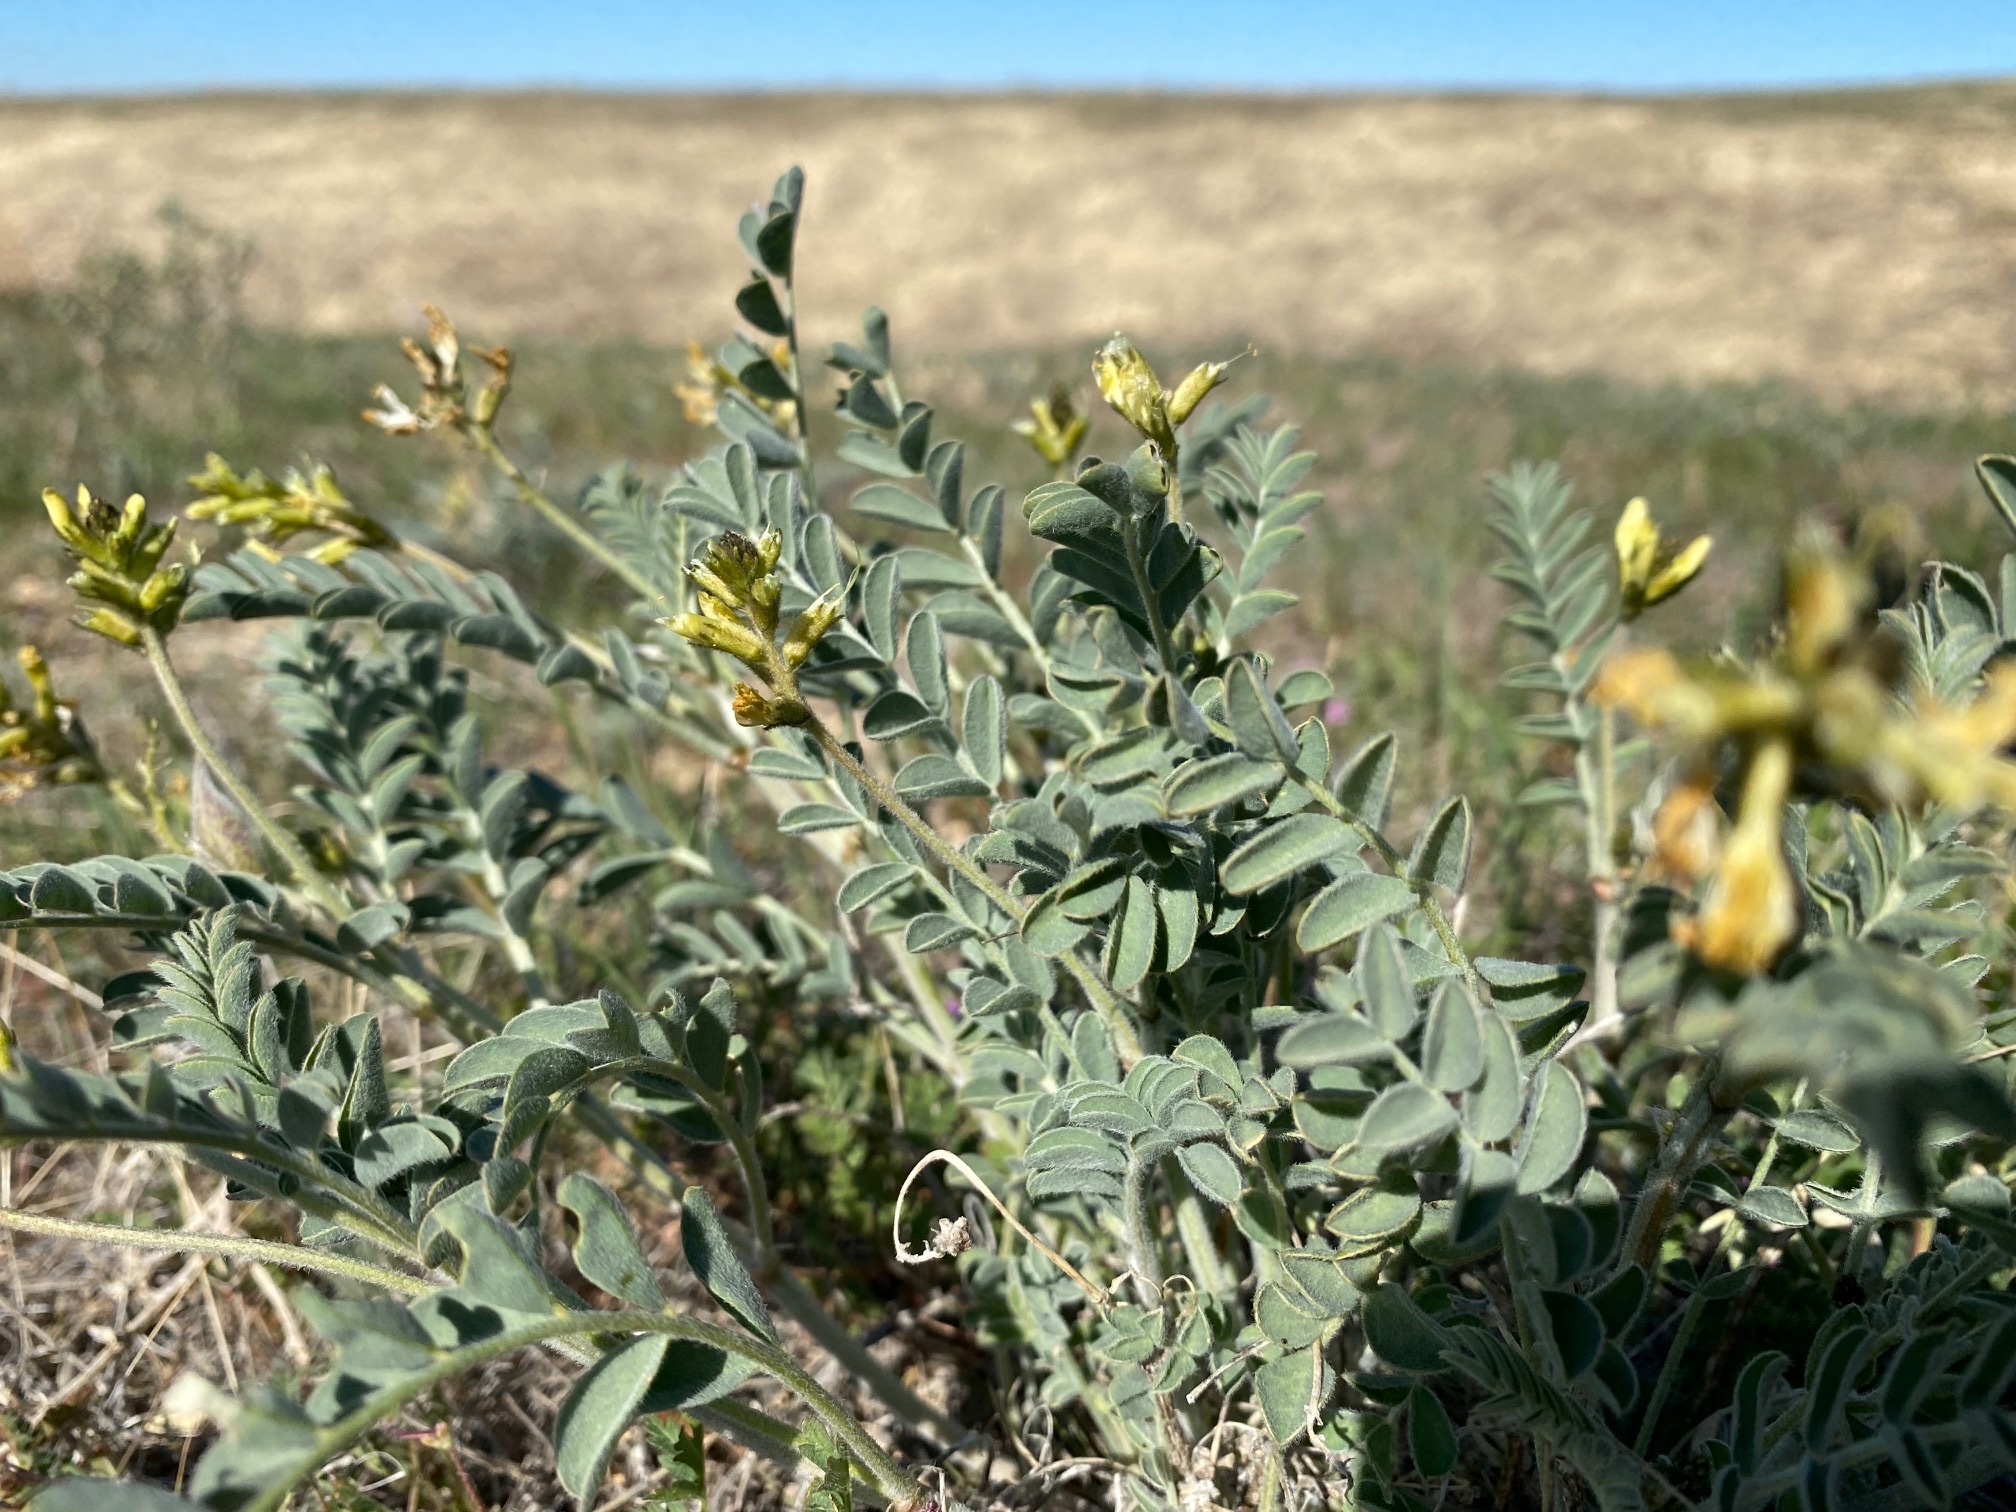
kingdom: Plantae
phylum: Tracheophyta
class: Magnoliopsida
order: Fabales
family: Fabaceae
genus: Astragalus
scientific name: Astragalus lentiginosus
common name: Freckled milkvetch
